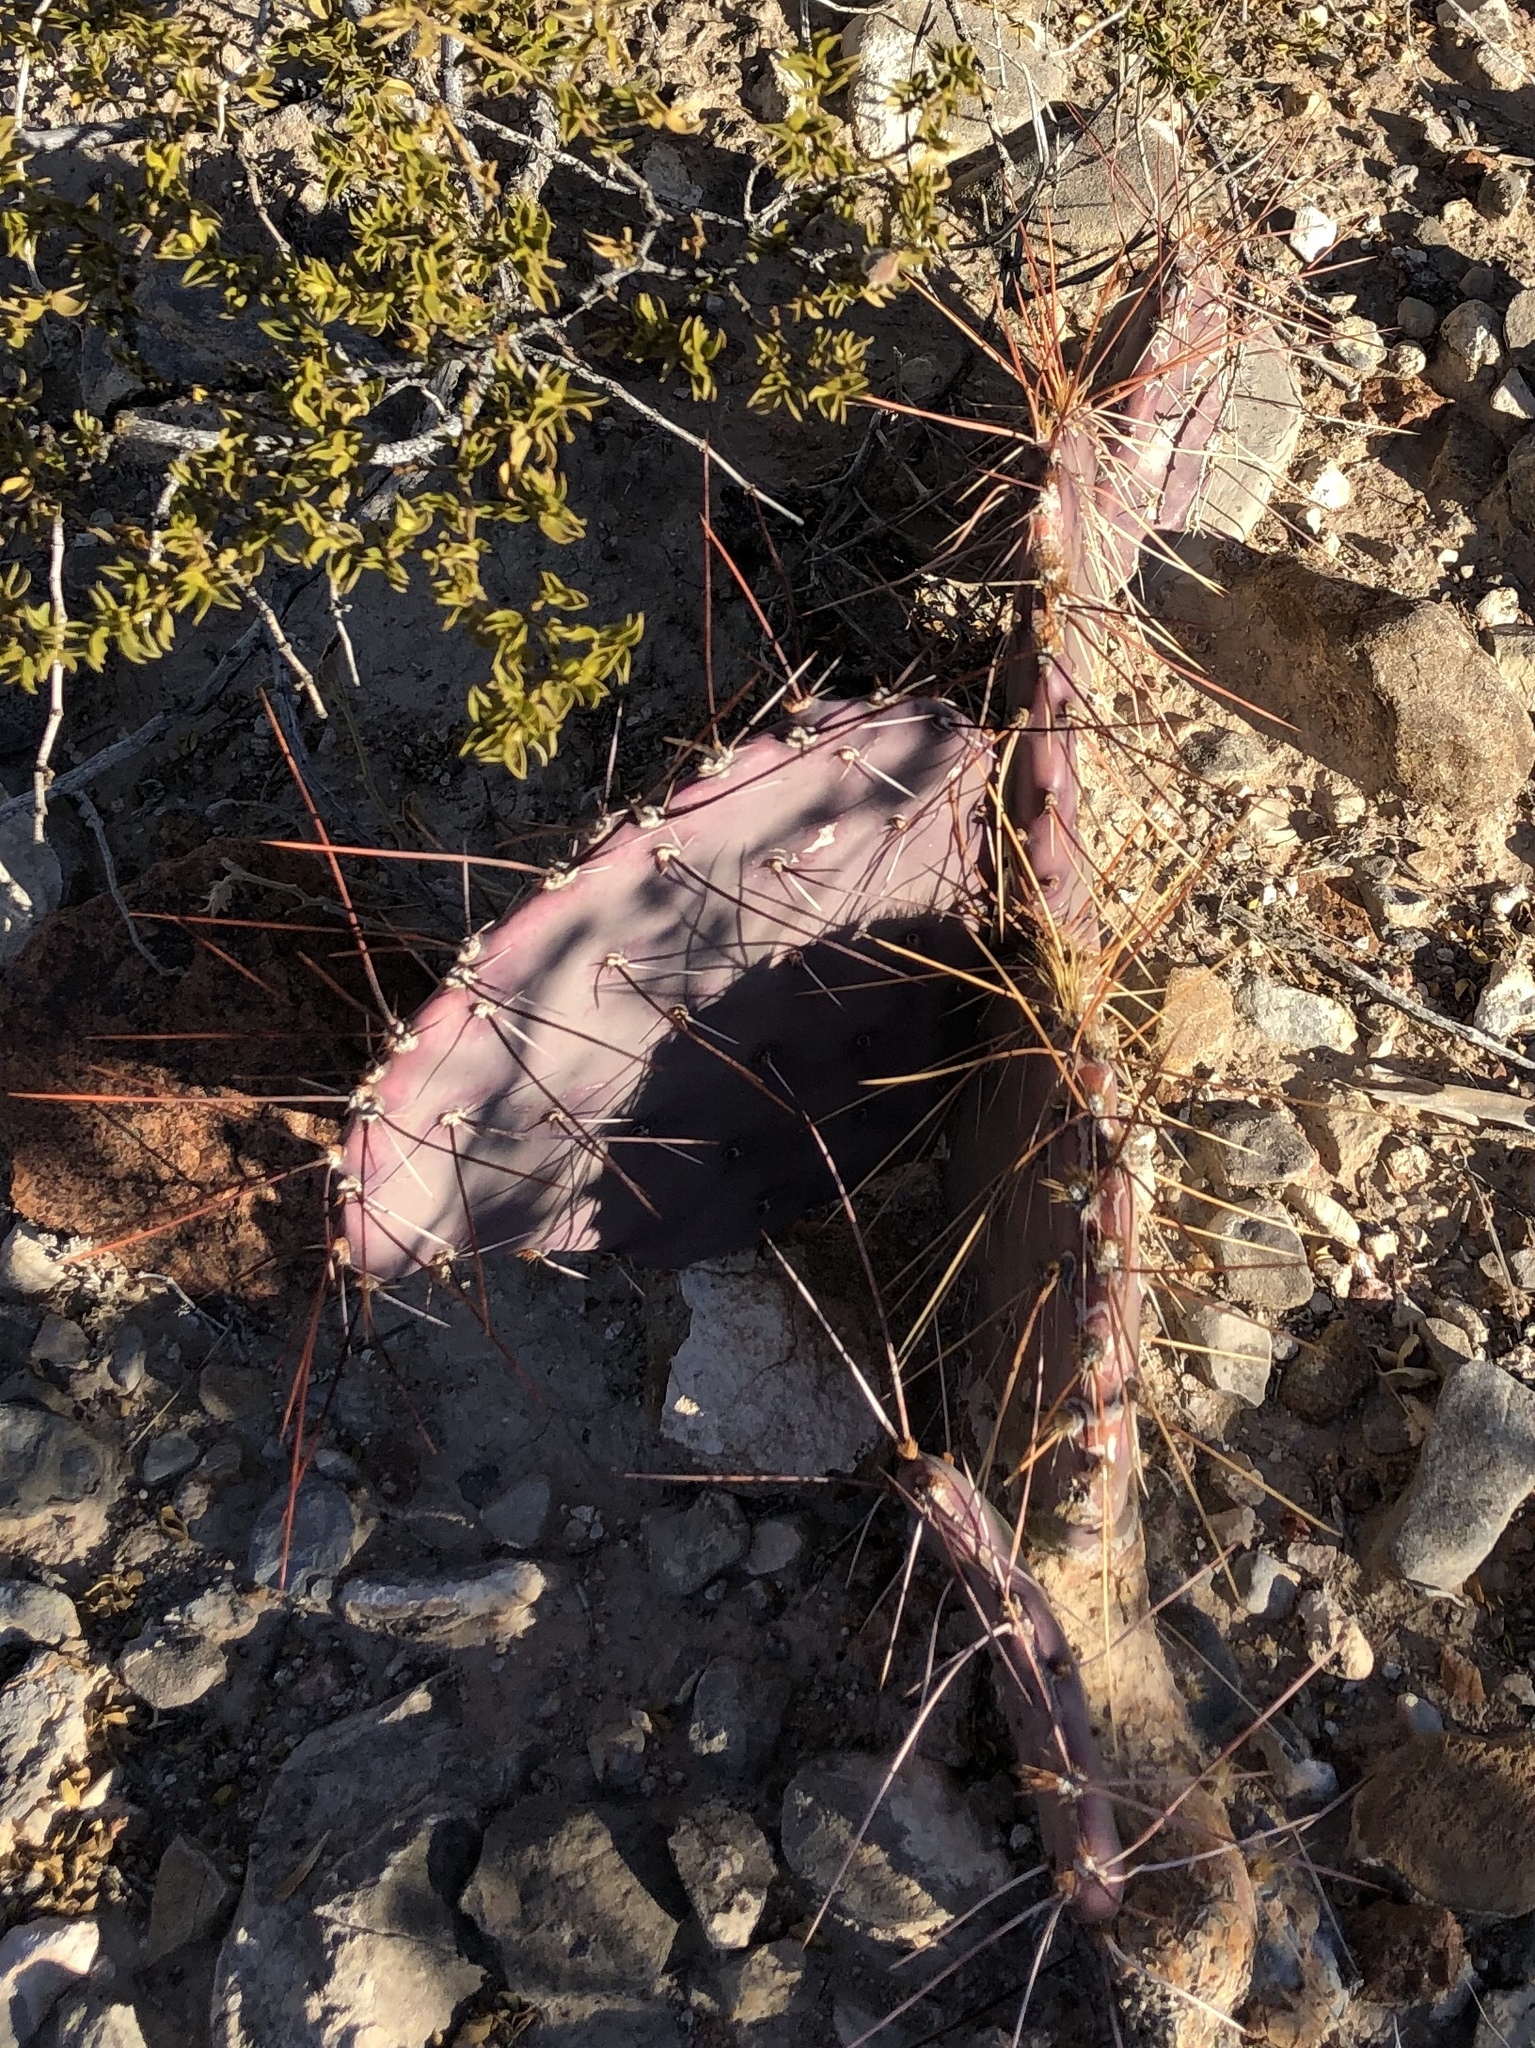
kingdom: Plantae
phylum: Tracheophyta
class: Magnoliopsida
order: Caryophyllales
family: Cactaceae
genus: Opuntia
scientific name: Opuntia phaeacantha
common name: New mexico prickly-pear
